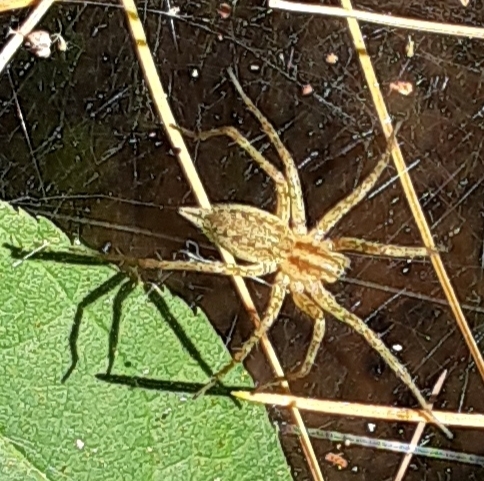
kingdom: Animalia
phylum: Arthropoda
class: Arachnida
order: Araneae
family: Agelenidae
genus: Agelenopsis
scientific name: Agelenopsis
